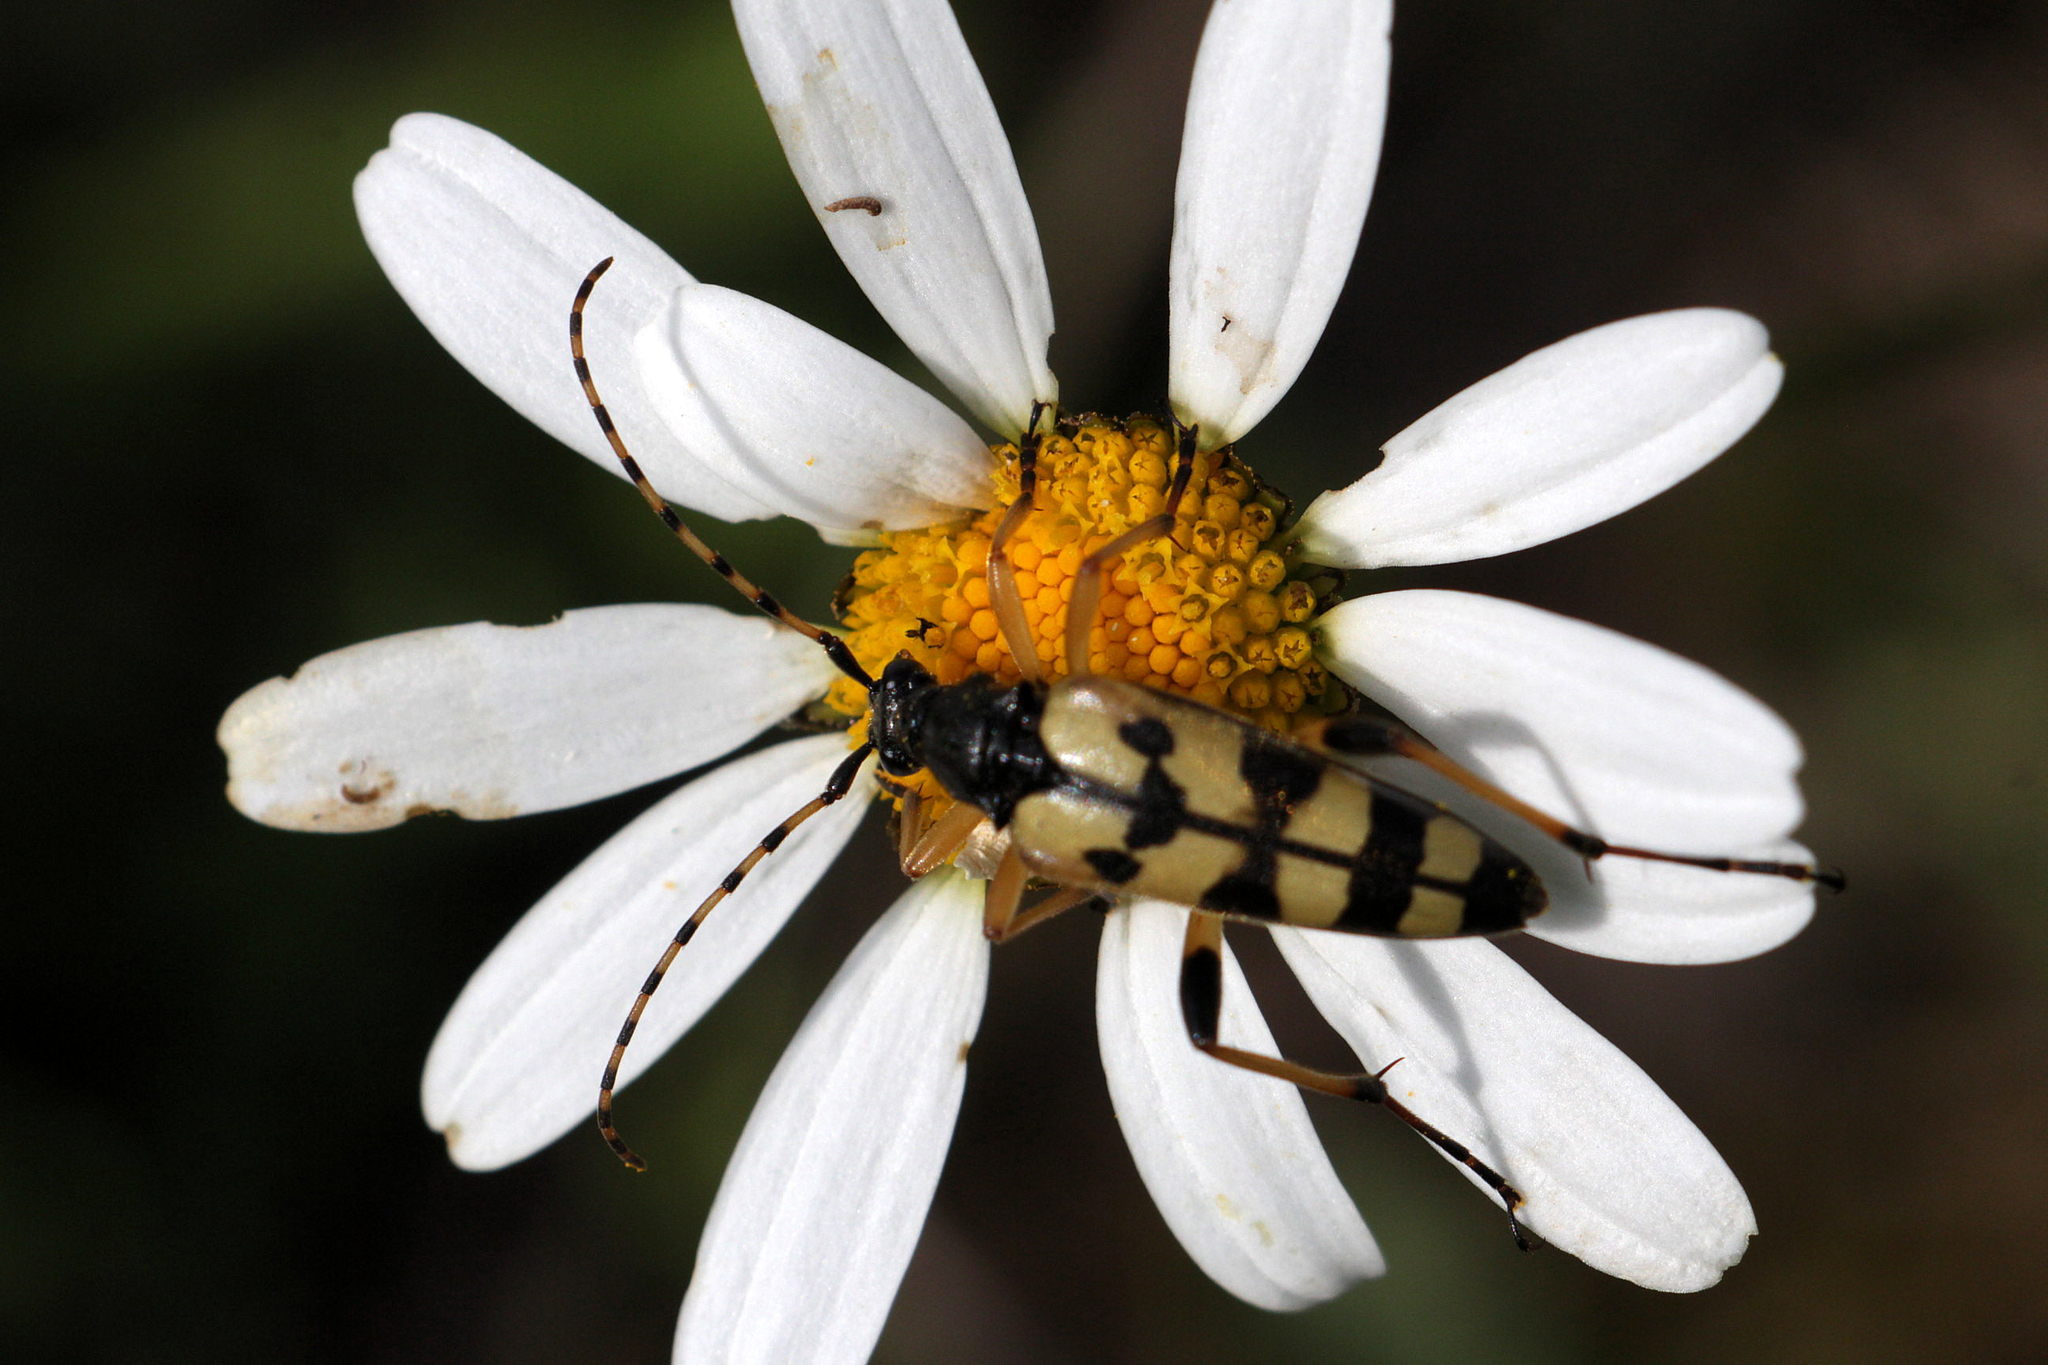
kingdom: Animalia
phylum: Arthropoda
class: Insecta
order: Coleoptera
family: Cerambycidae
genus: Rutpela
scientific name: Rutpela maculata
